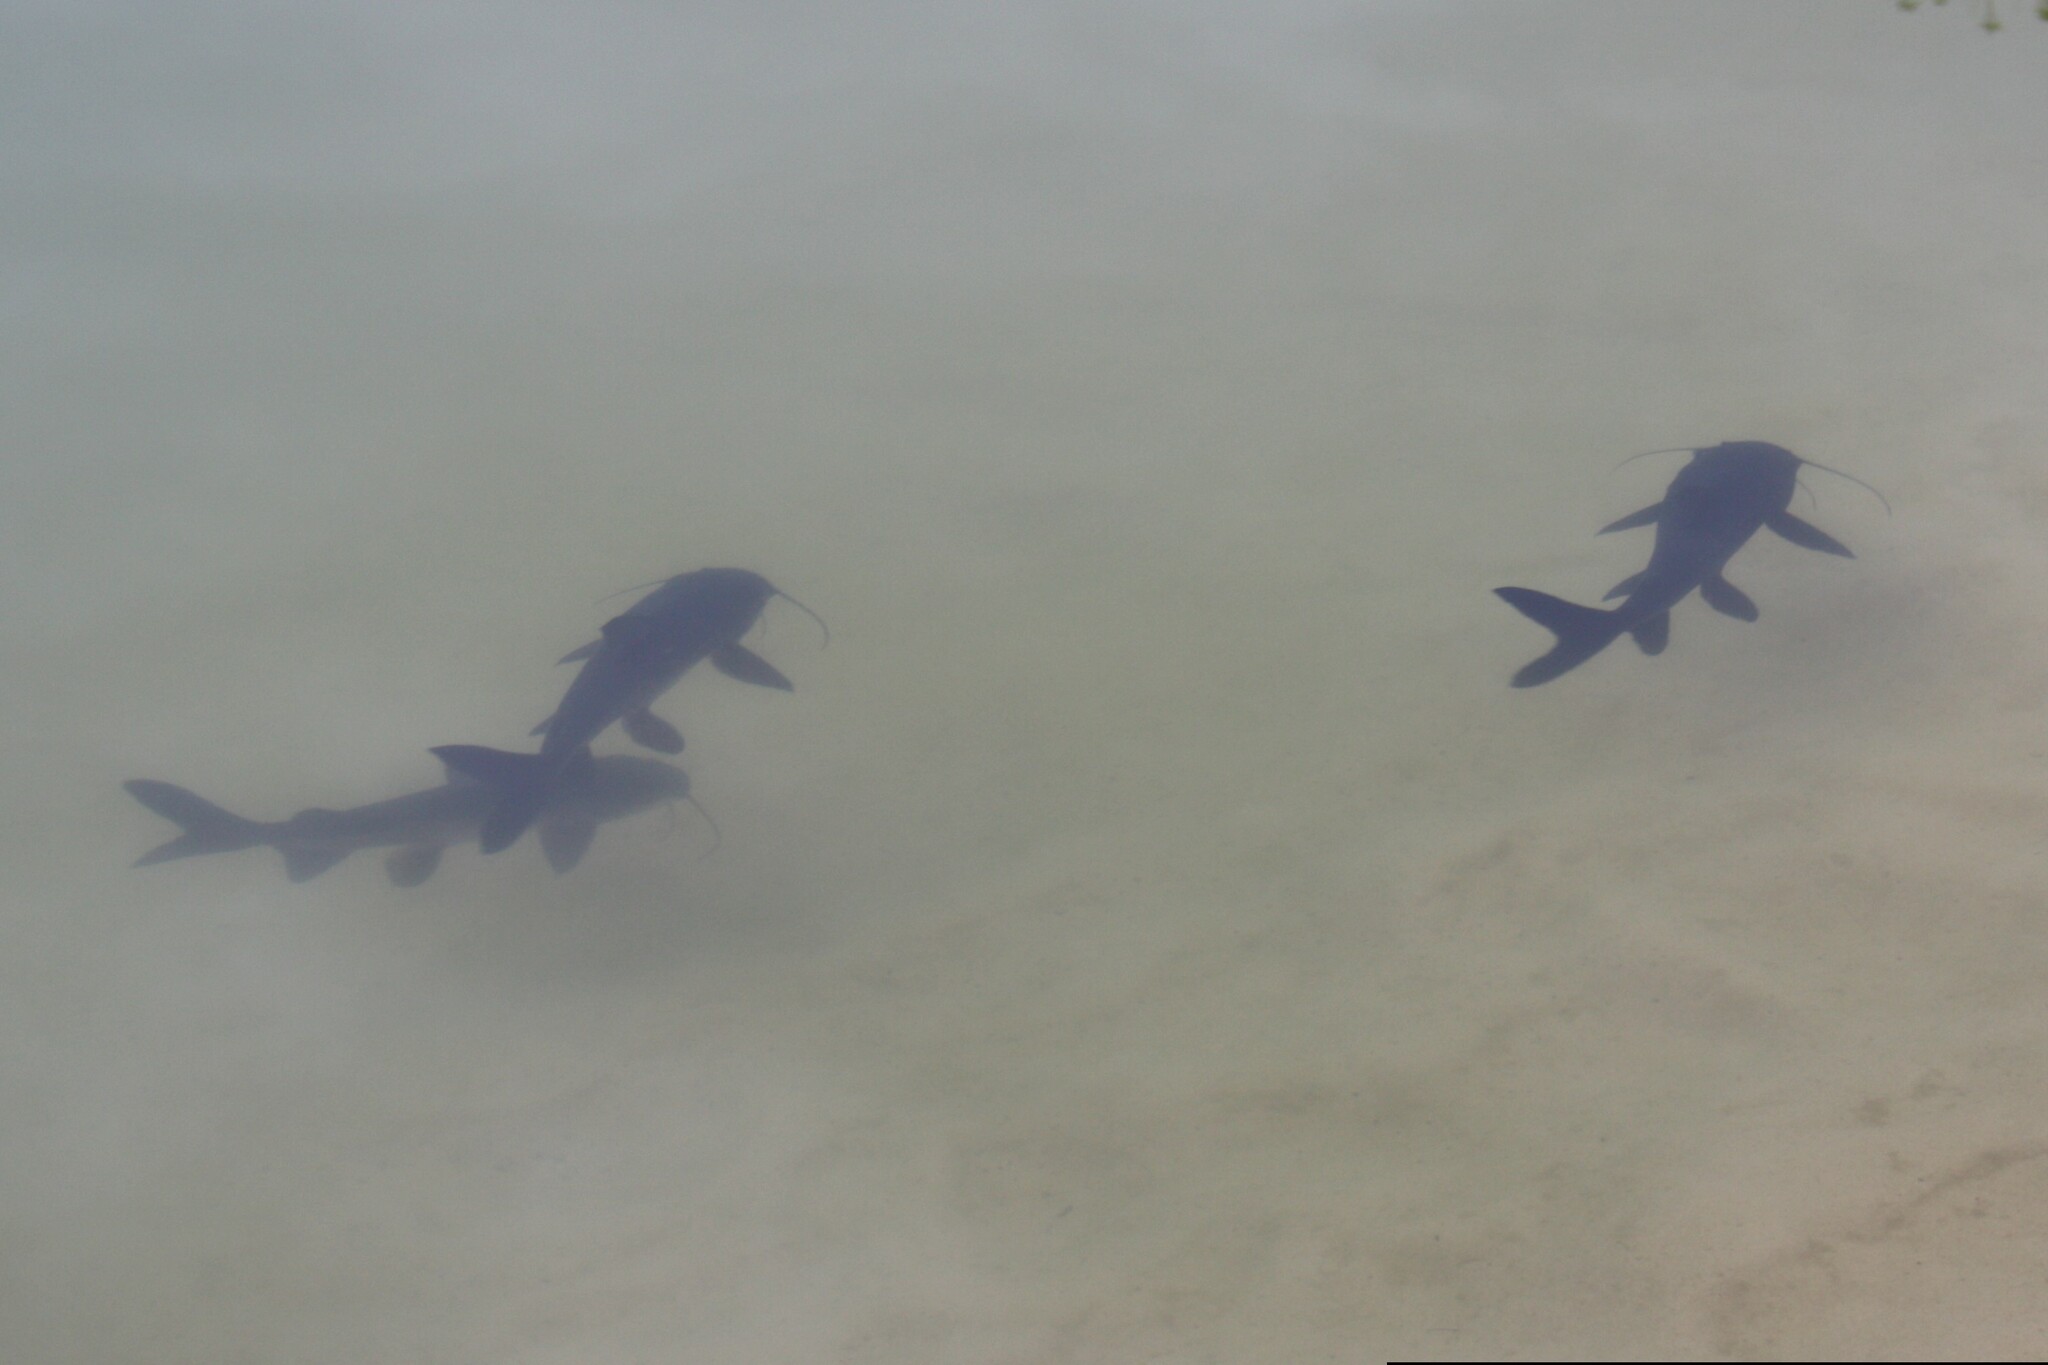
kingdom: Animalia
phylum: Chordata
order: Siluriformes
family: Ariidae
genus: Neoarius
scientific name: Neoarius graeffei
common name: Blue salmon catfish
